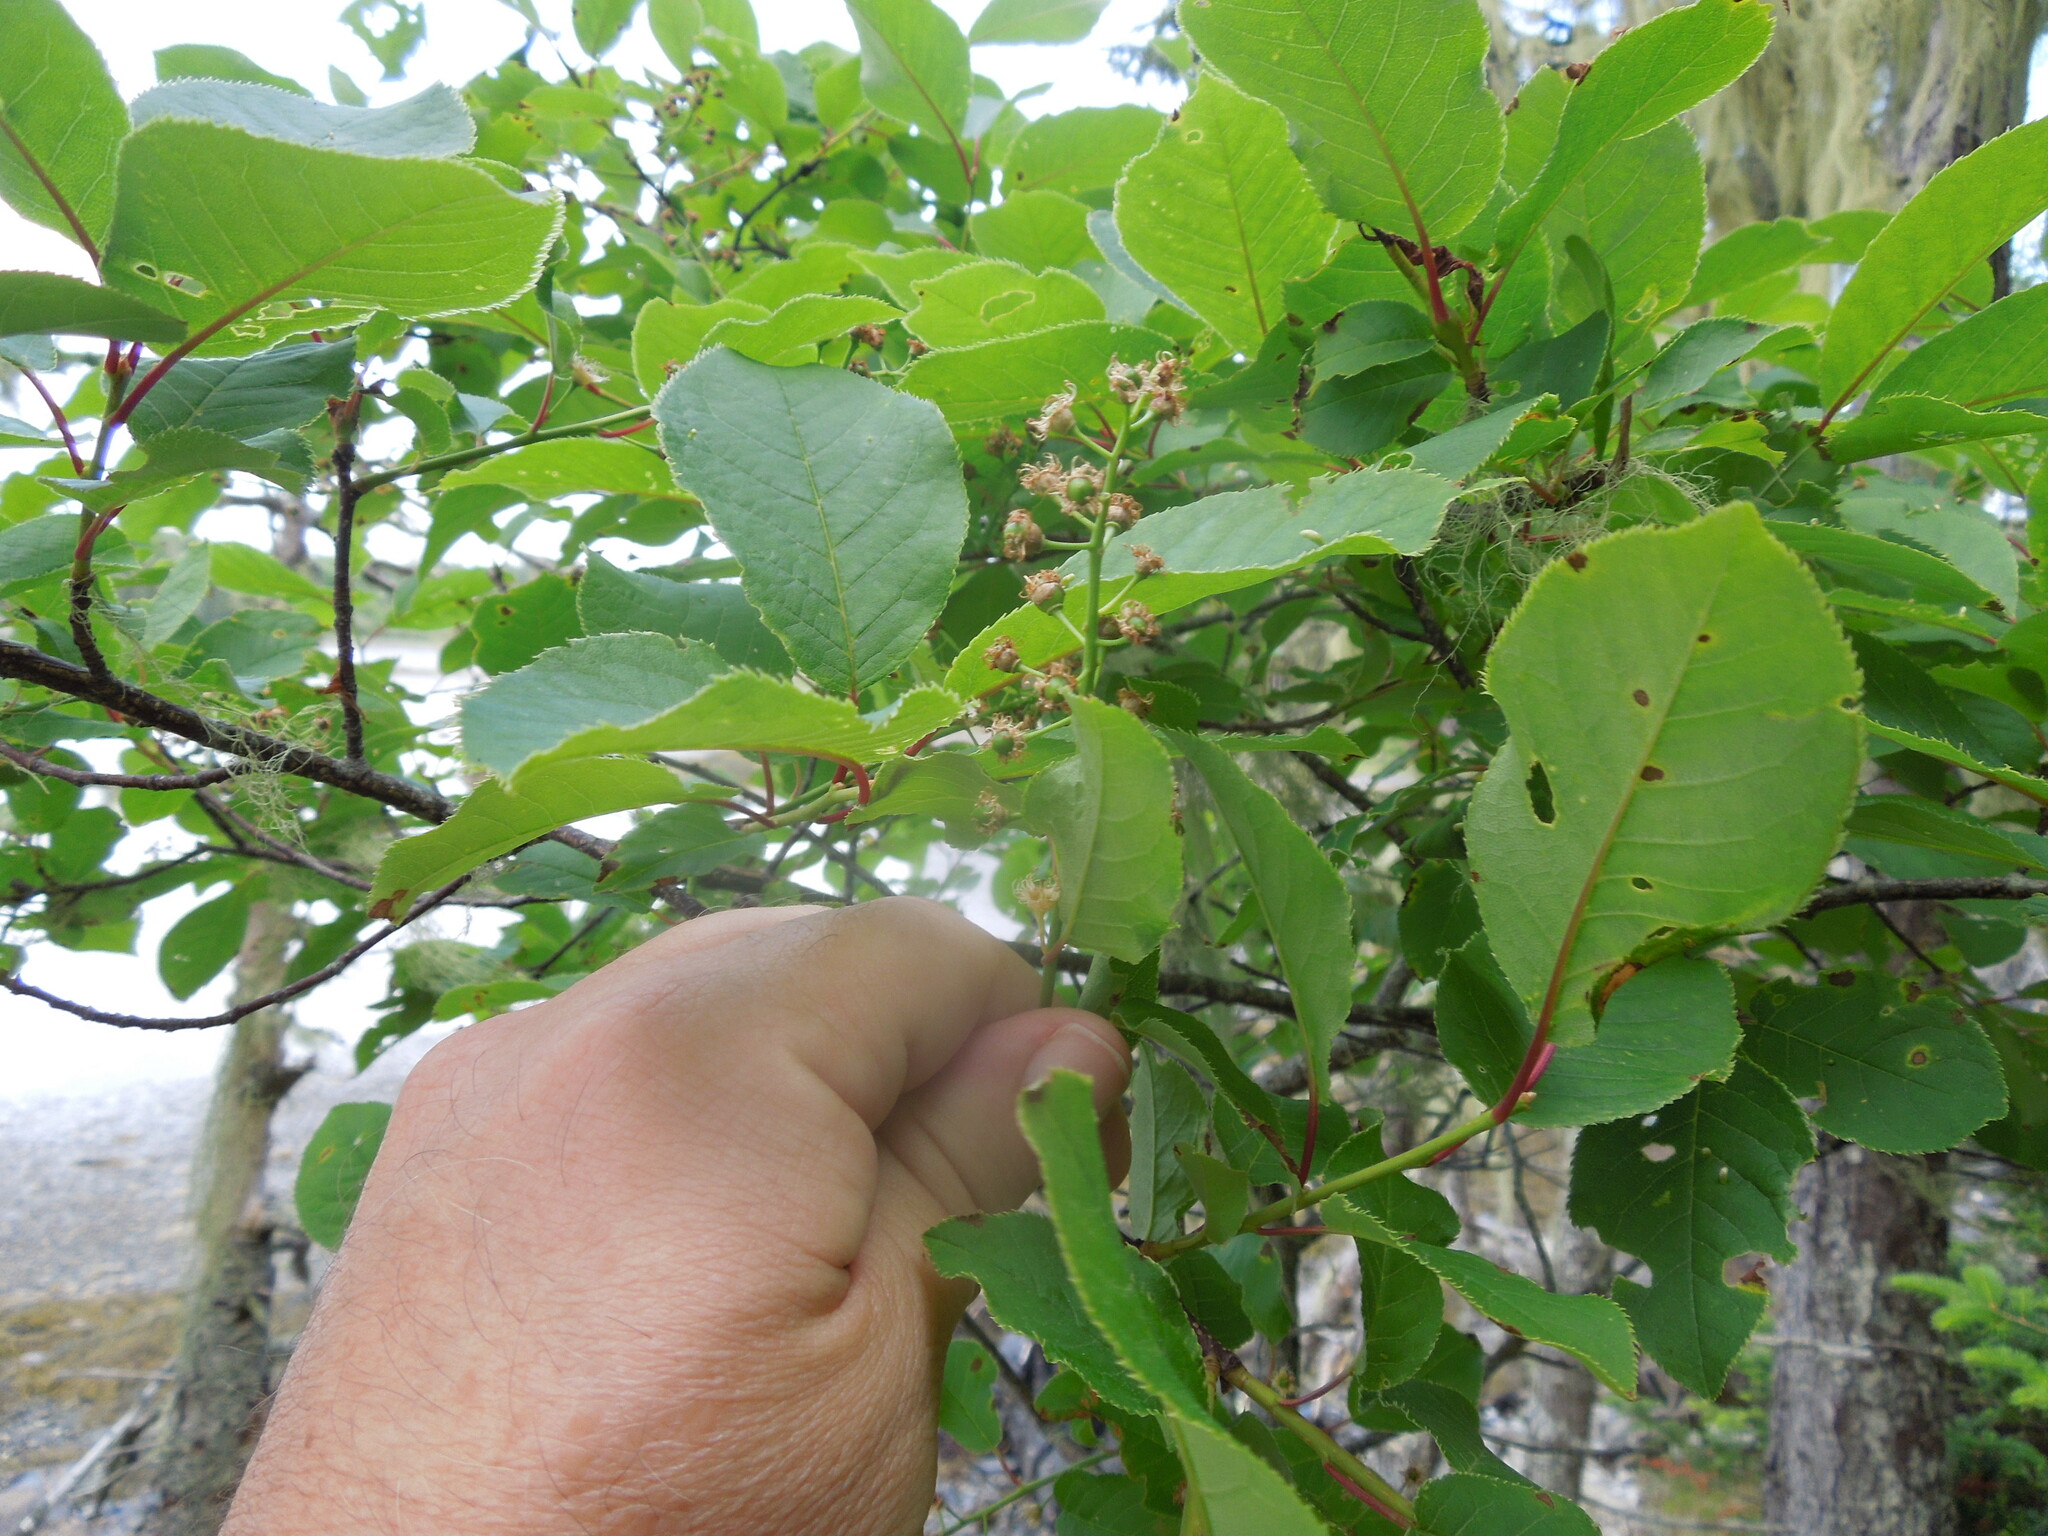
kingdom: Plantae
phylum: Tracheophyta
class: Magnoliopsida
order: Rosales
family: Rosaceae
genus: Prunus
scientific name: Prunus virginiana
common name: Chokecherry
